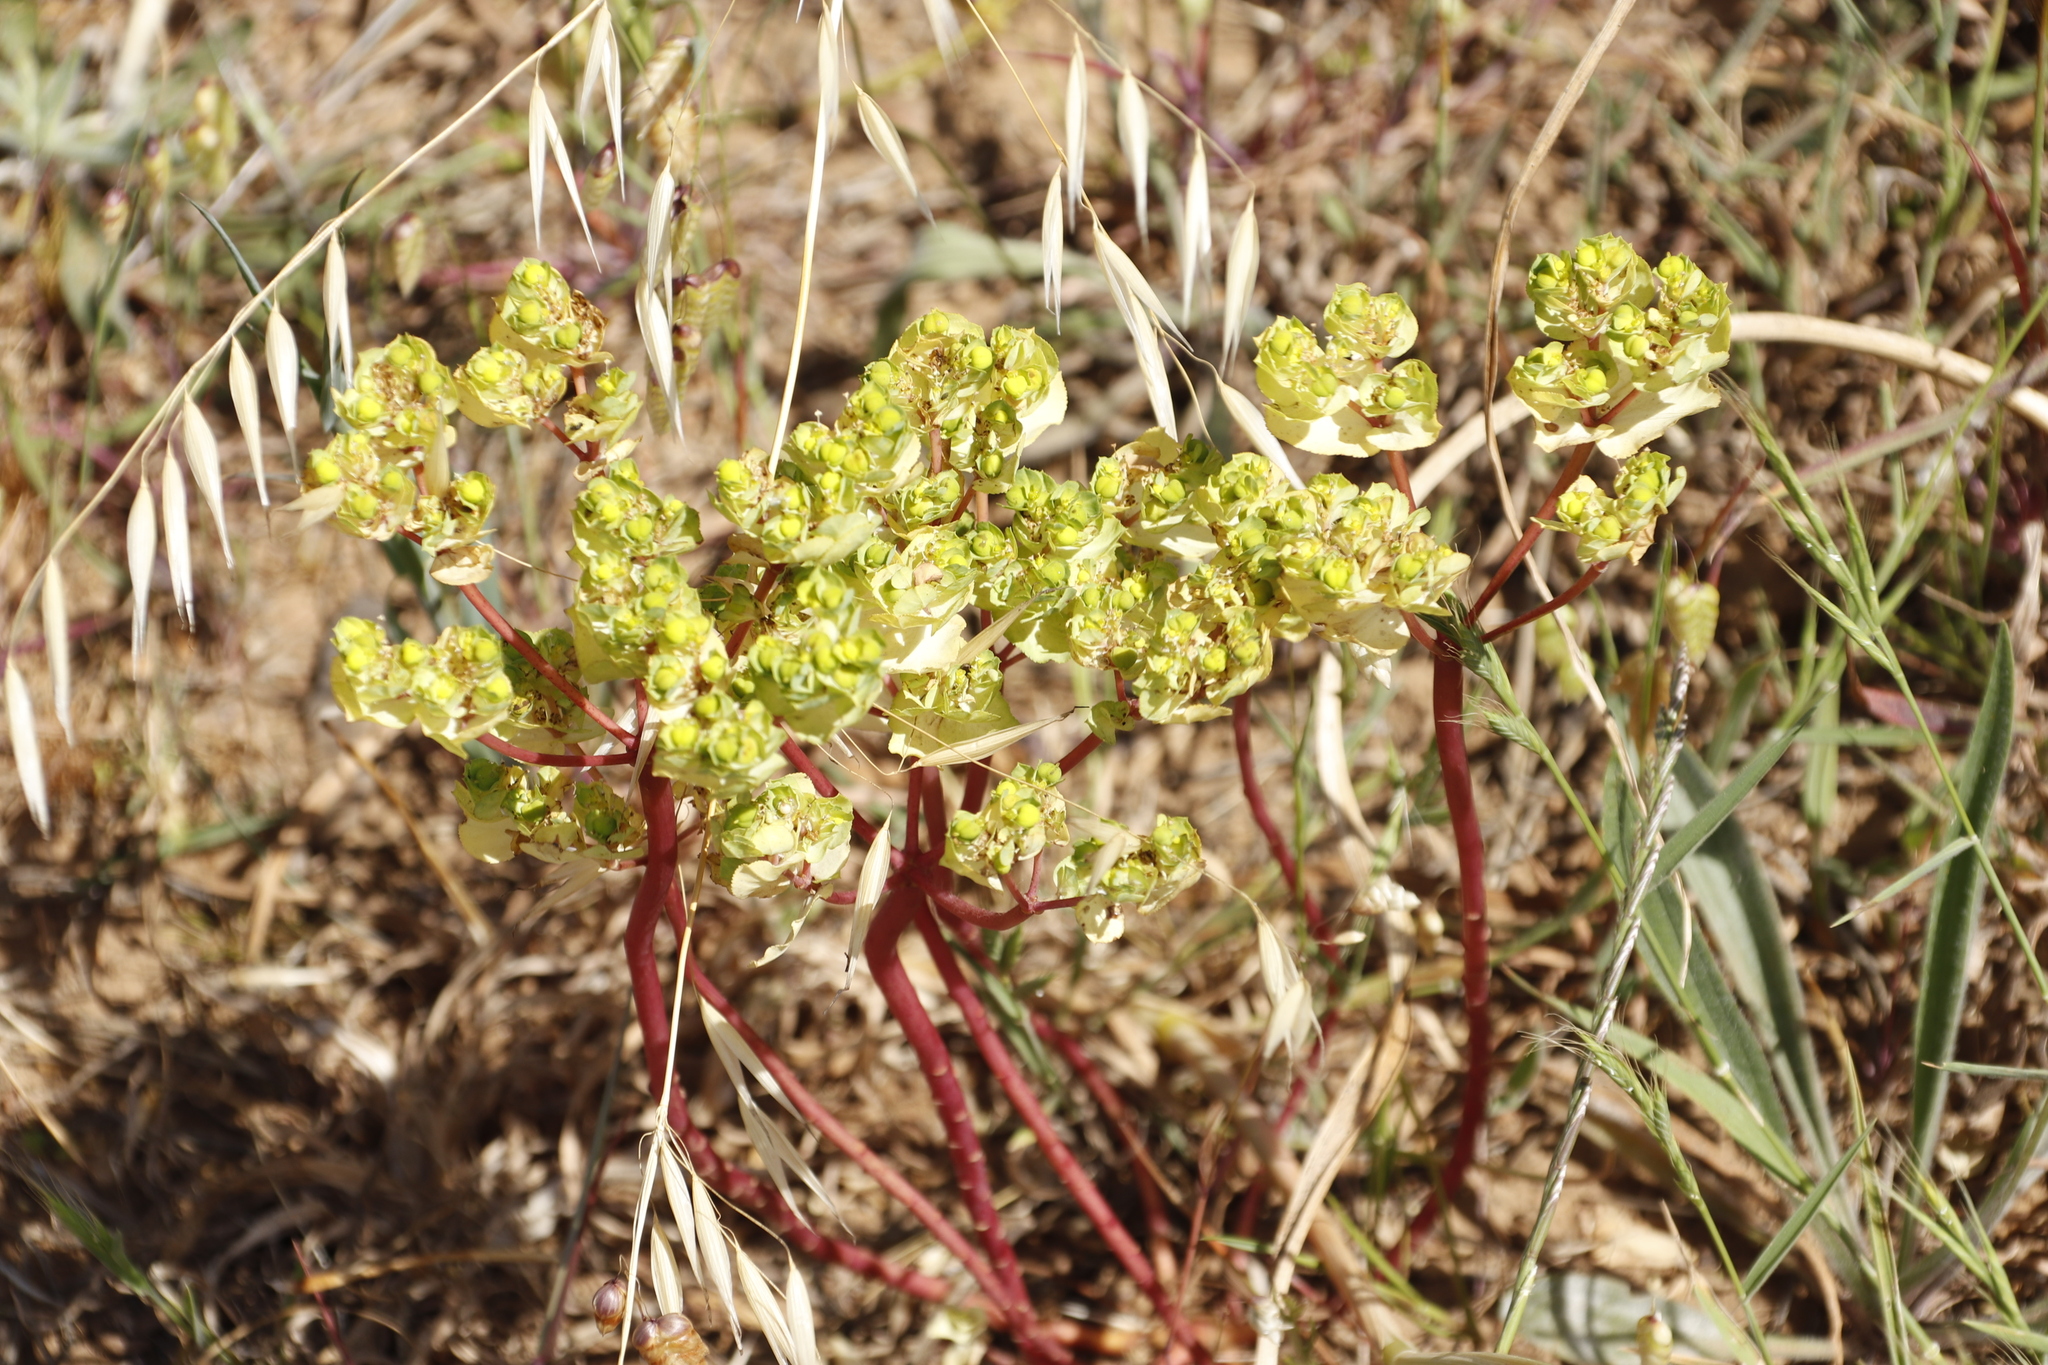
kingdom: Plantae
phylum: Tracheophyta
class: Magnoliopsida
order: Malpighiales
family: Euphorbiaceae
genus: Euphorbia
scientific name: Euphorbia helioscopia
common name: Sun spurge
